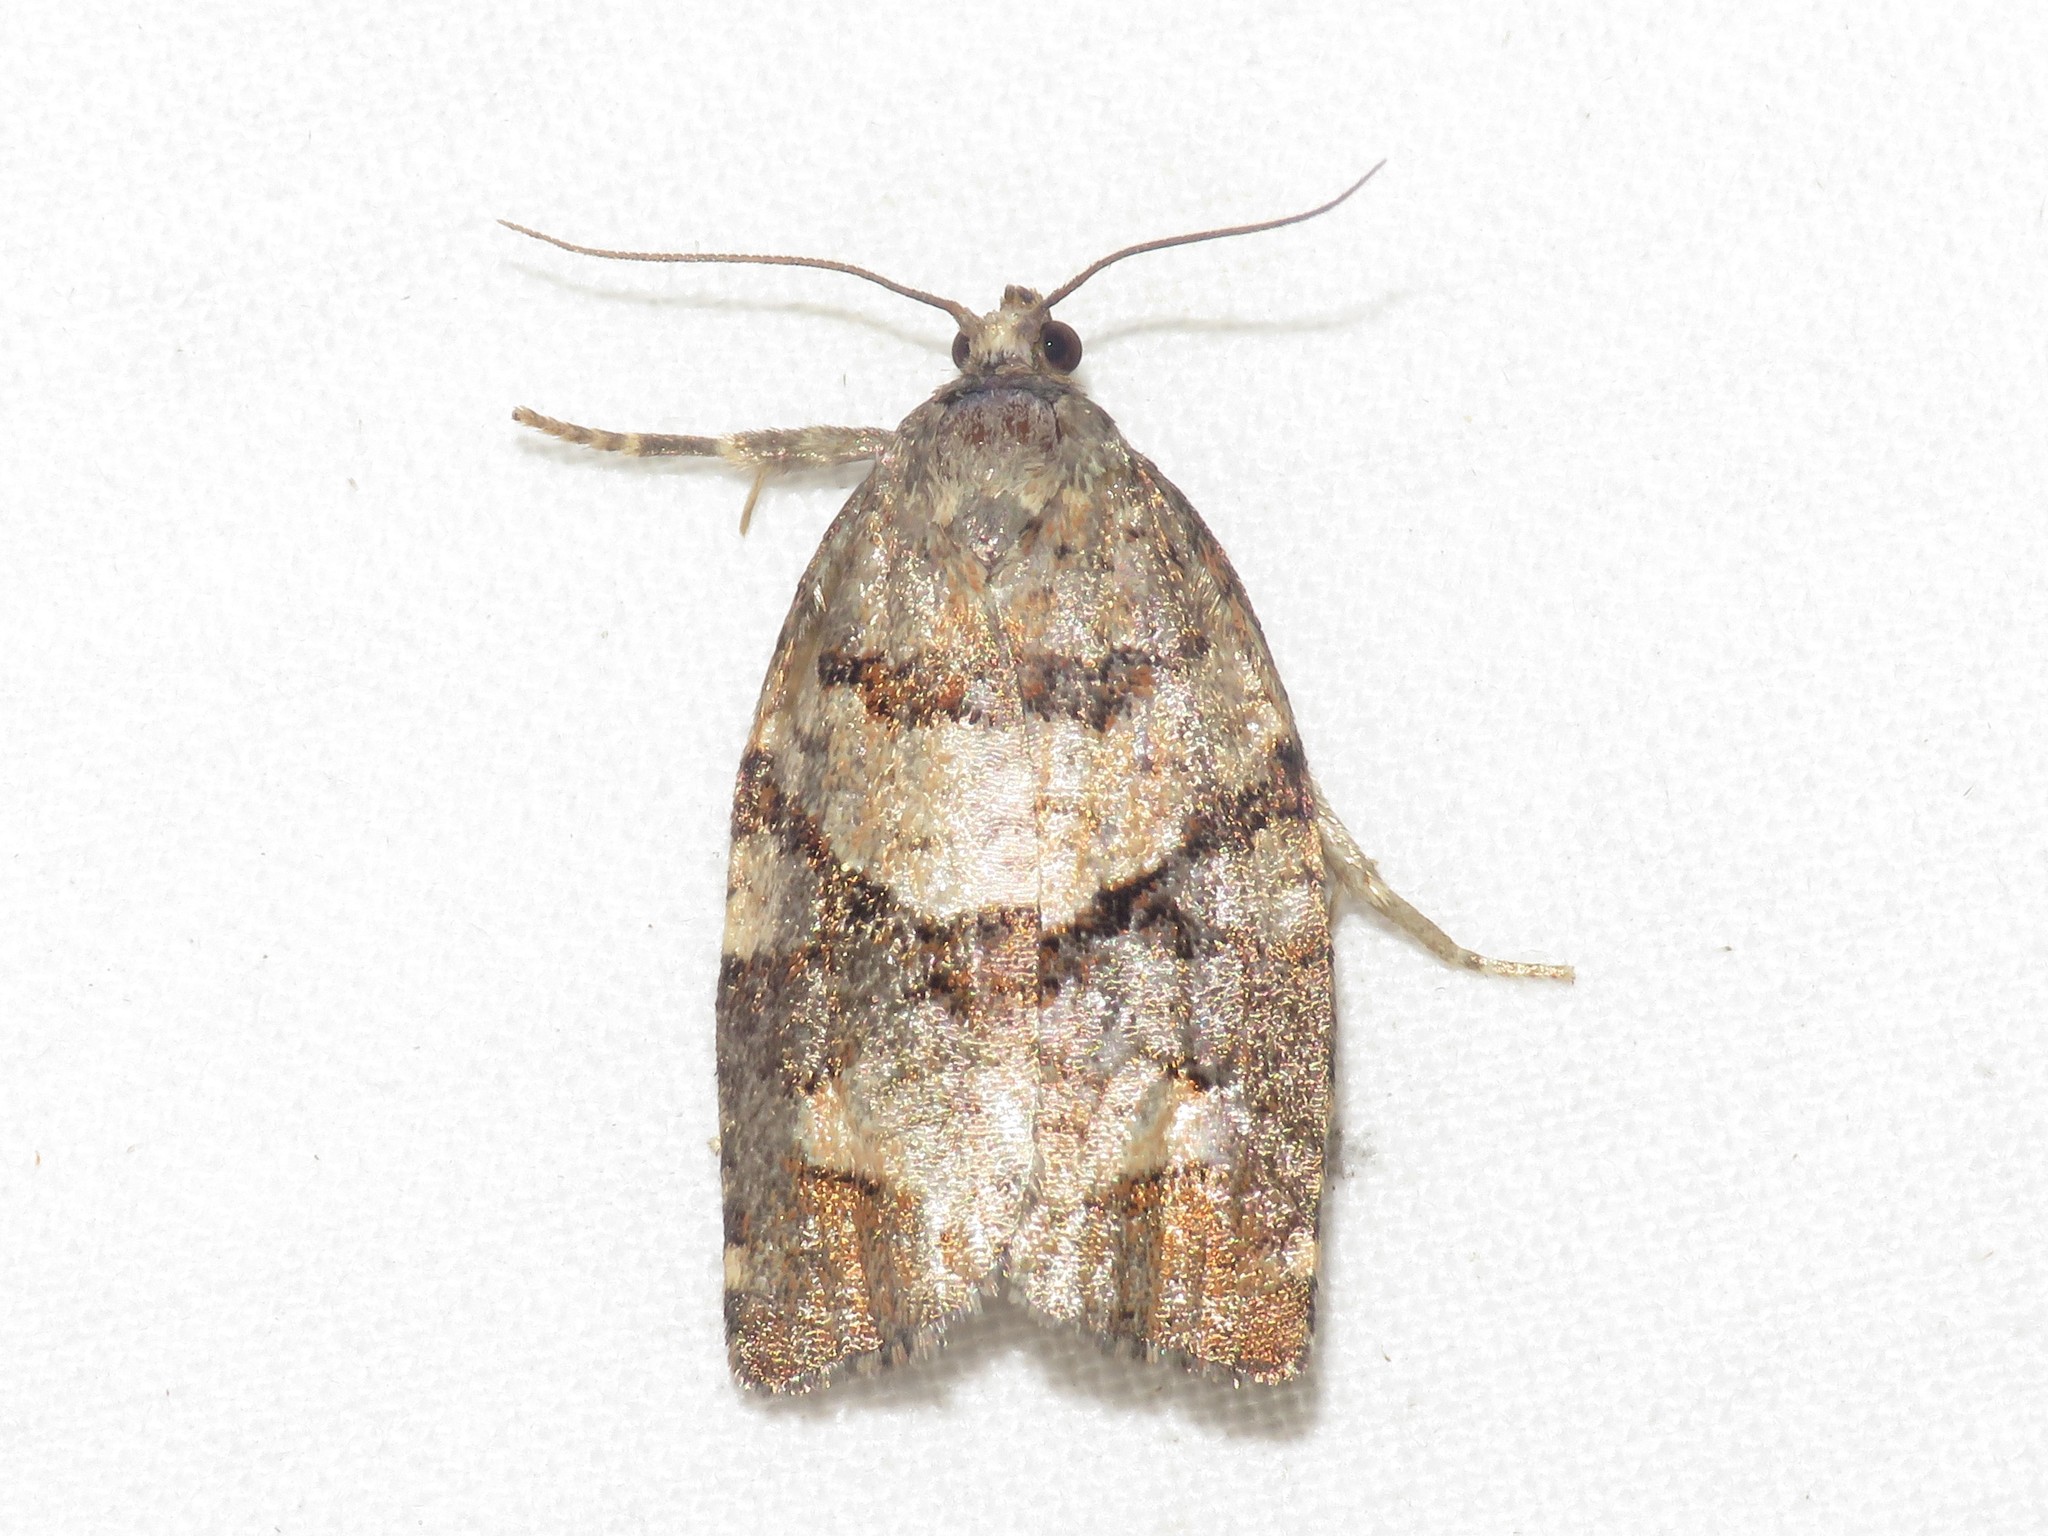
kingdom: Animalia
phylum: Arthropoda
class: Insecta
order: Lepidoptera
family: Tortricidae
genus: Archips
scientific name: Archips alberta
